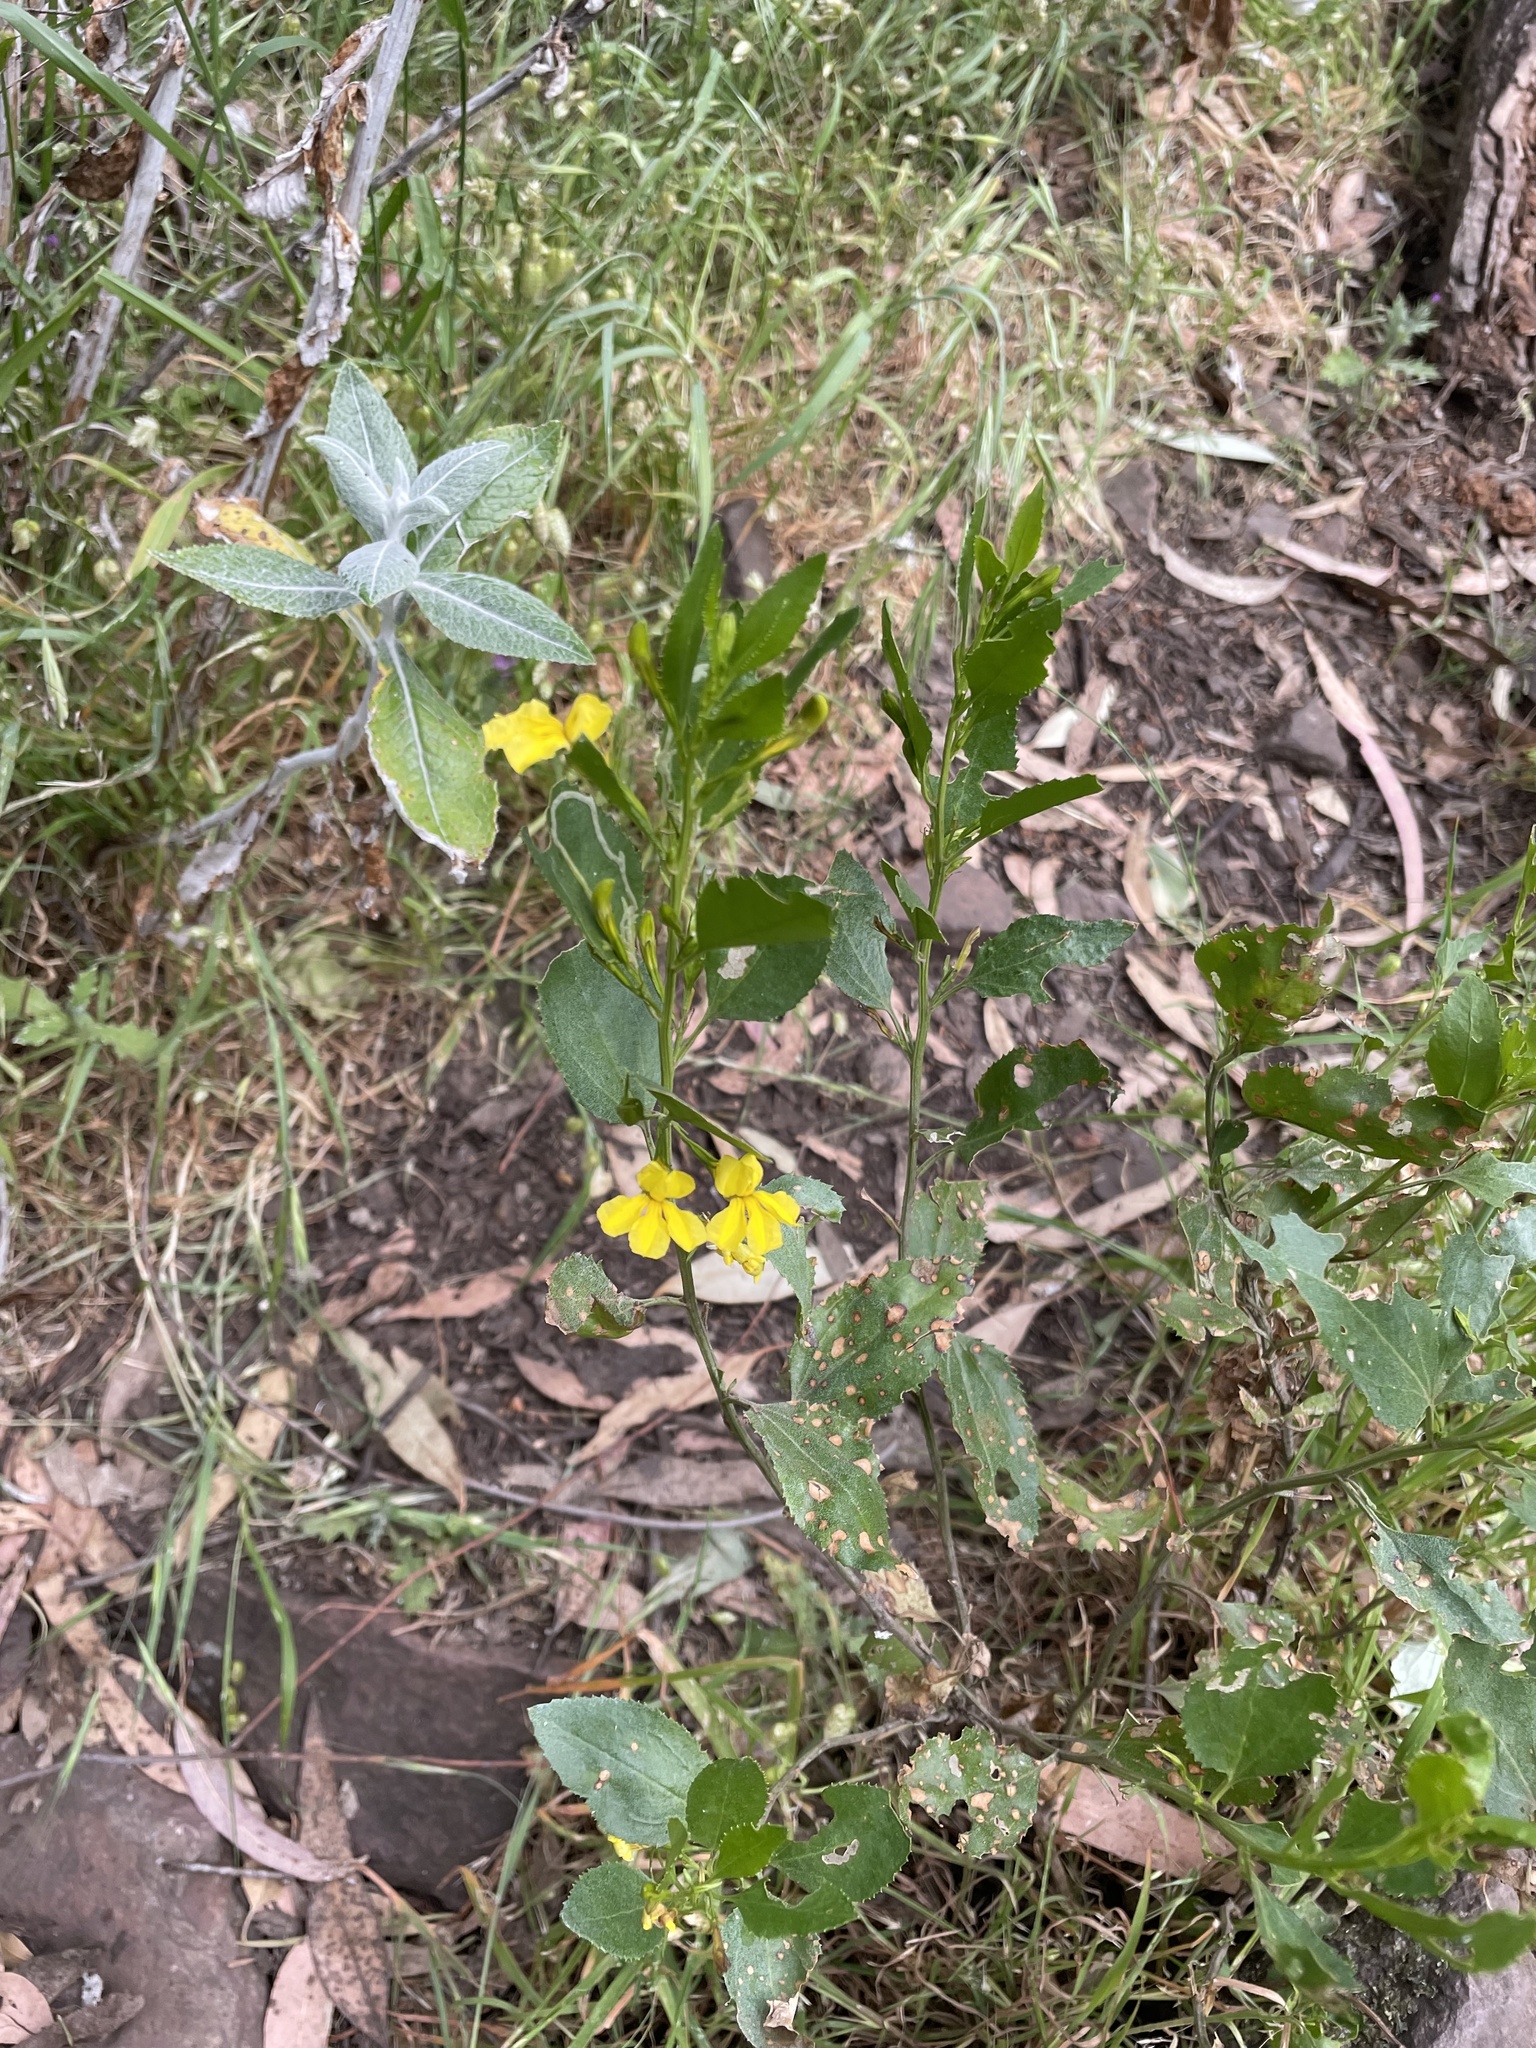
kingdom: Plantae
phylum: Tracheophyta
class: Magnoliopsida
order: Asterales
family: Goodeniaceae
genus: Goodenia
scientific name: Goodenia ovata
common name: Hop goodenia
